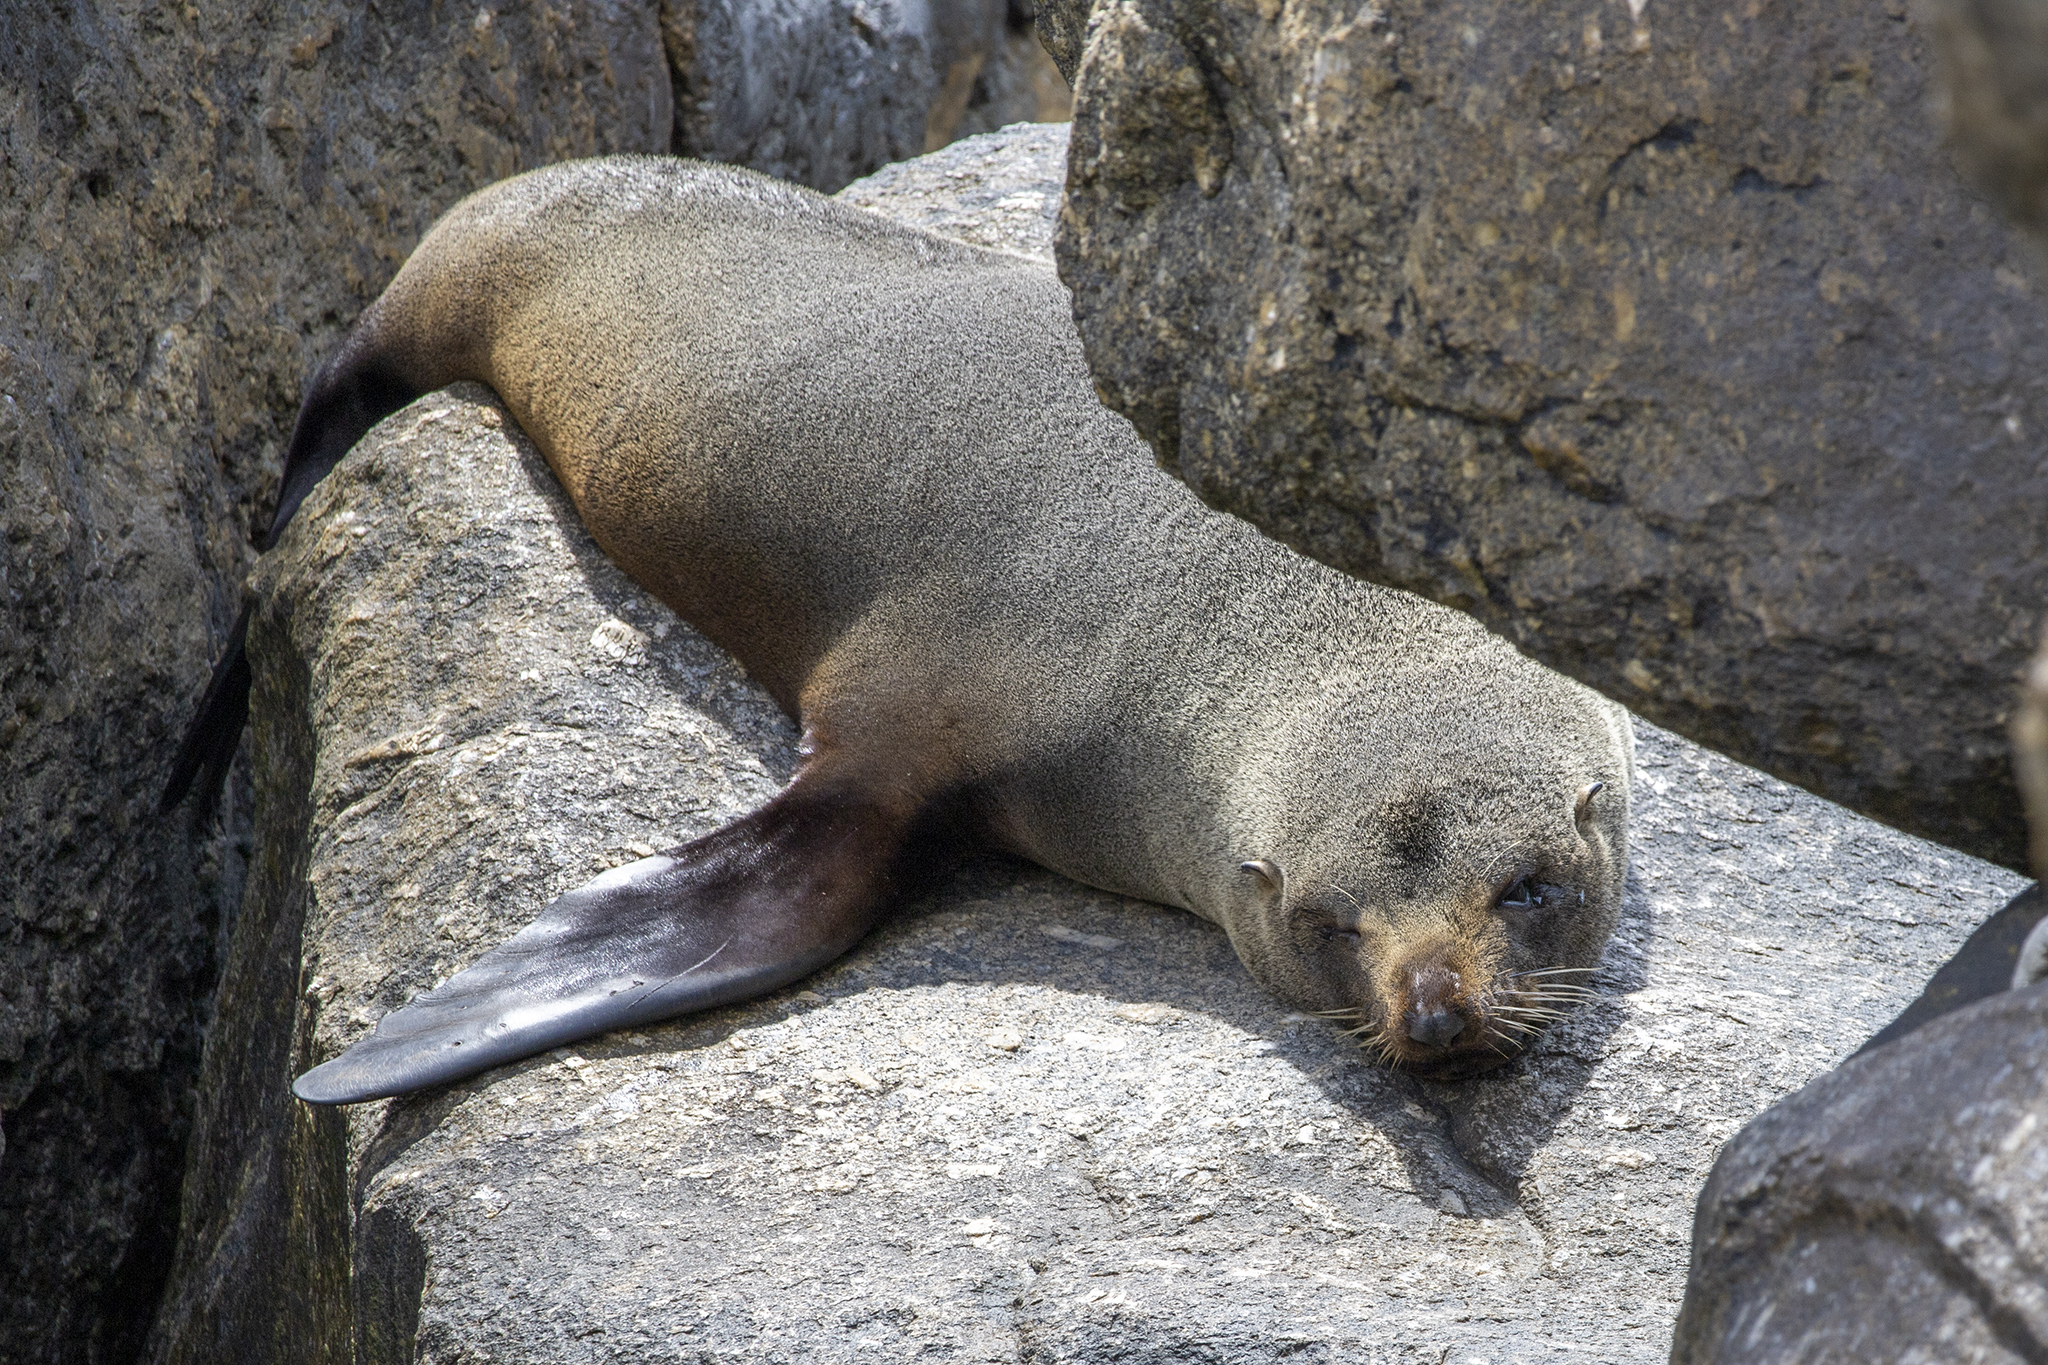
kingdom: Animalia
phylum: Chordata
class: Mammalia
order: Carnivora
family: Otariidae
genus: Arctocephalus
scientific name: Arctocephalus forsteri
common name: New zealand fur seal
